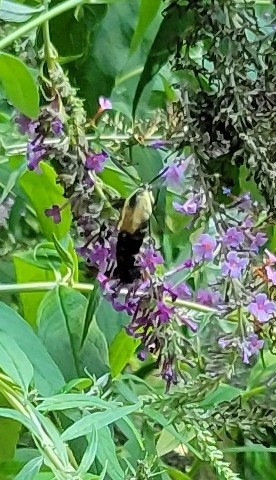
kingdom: Animalia
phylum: Arthropoda
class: Insecta
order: Lepidoptera
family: Sphingidae
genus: Hemaris
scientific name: Hemaris diffinis
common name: Bumblebee moth
